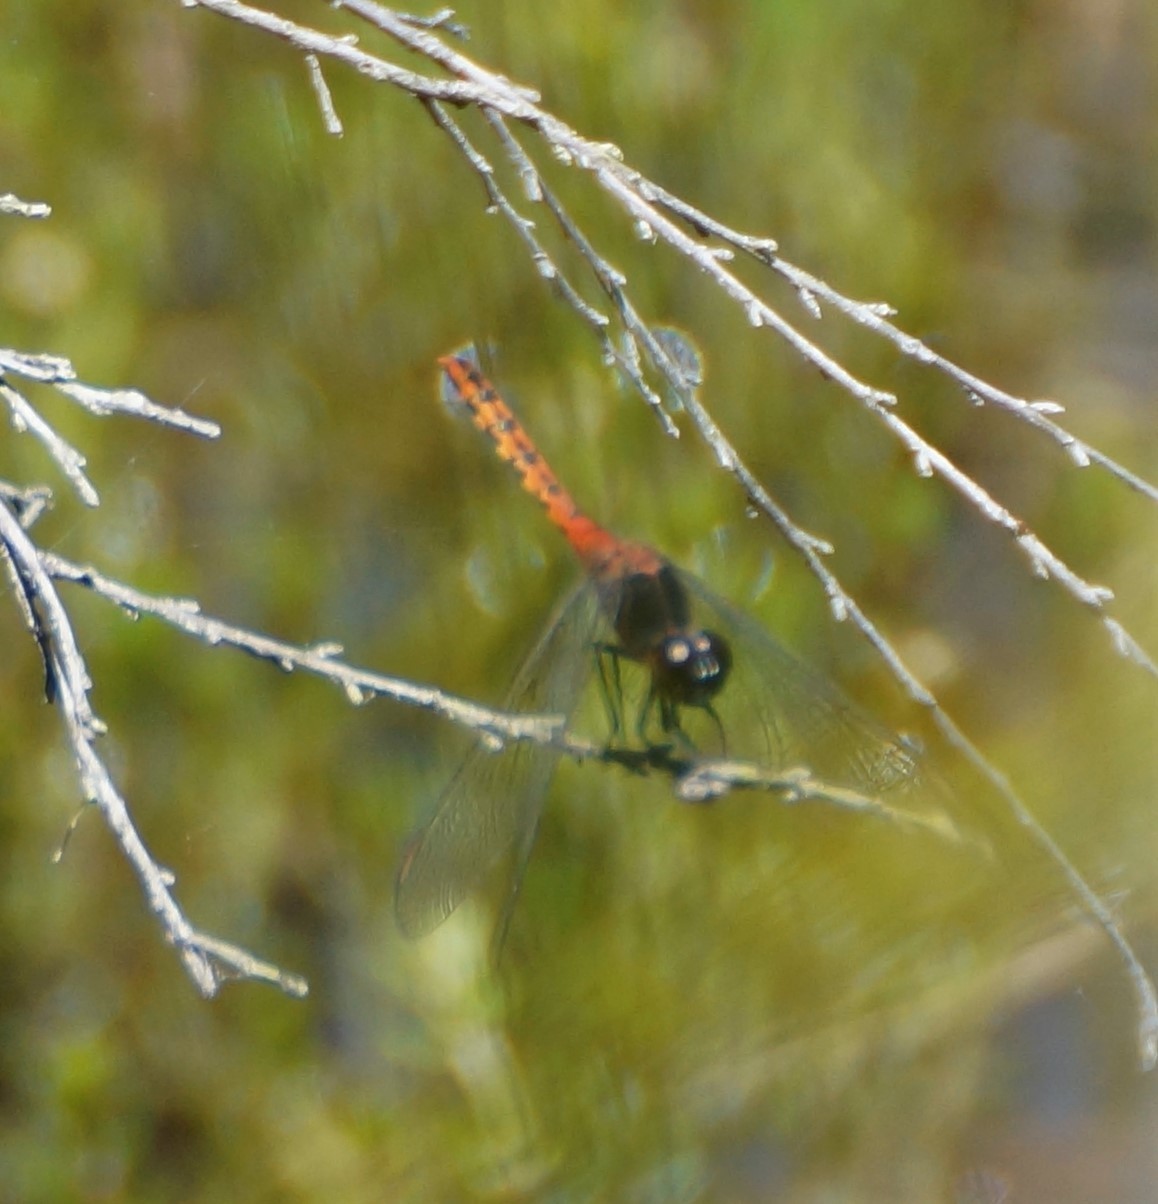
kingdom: Animalia
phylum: Arthropoda
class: Insecta
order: Odonata
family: Libellulidae
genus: Diplacodes
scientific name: Diplacodes melanopsis
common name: Black-faced percher
